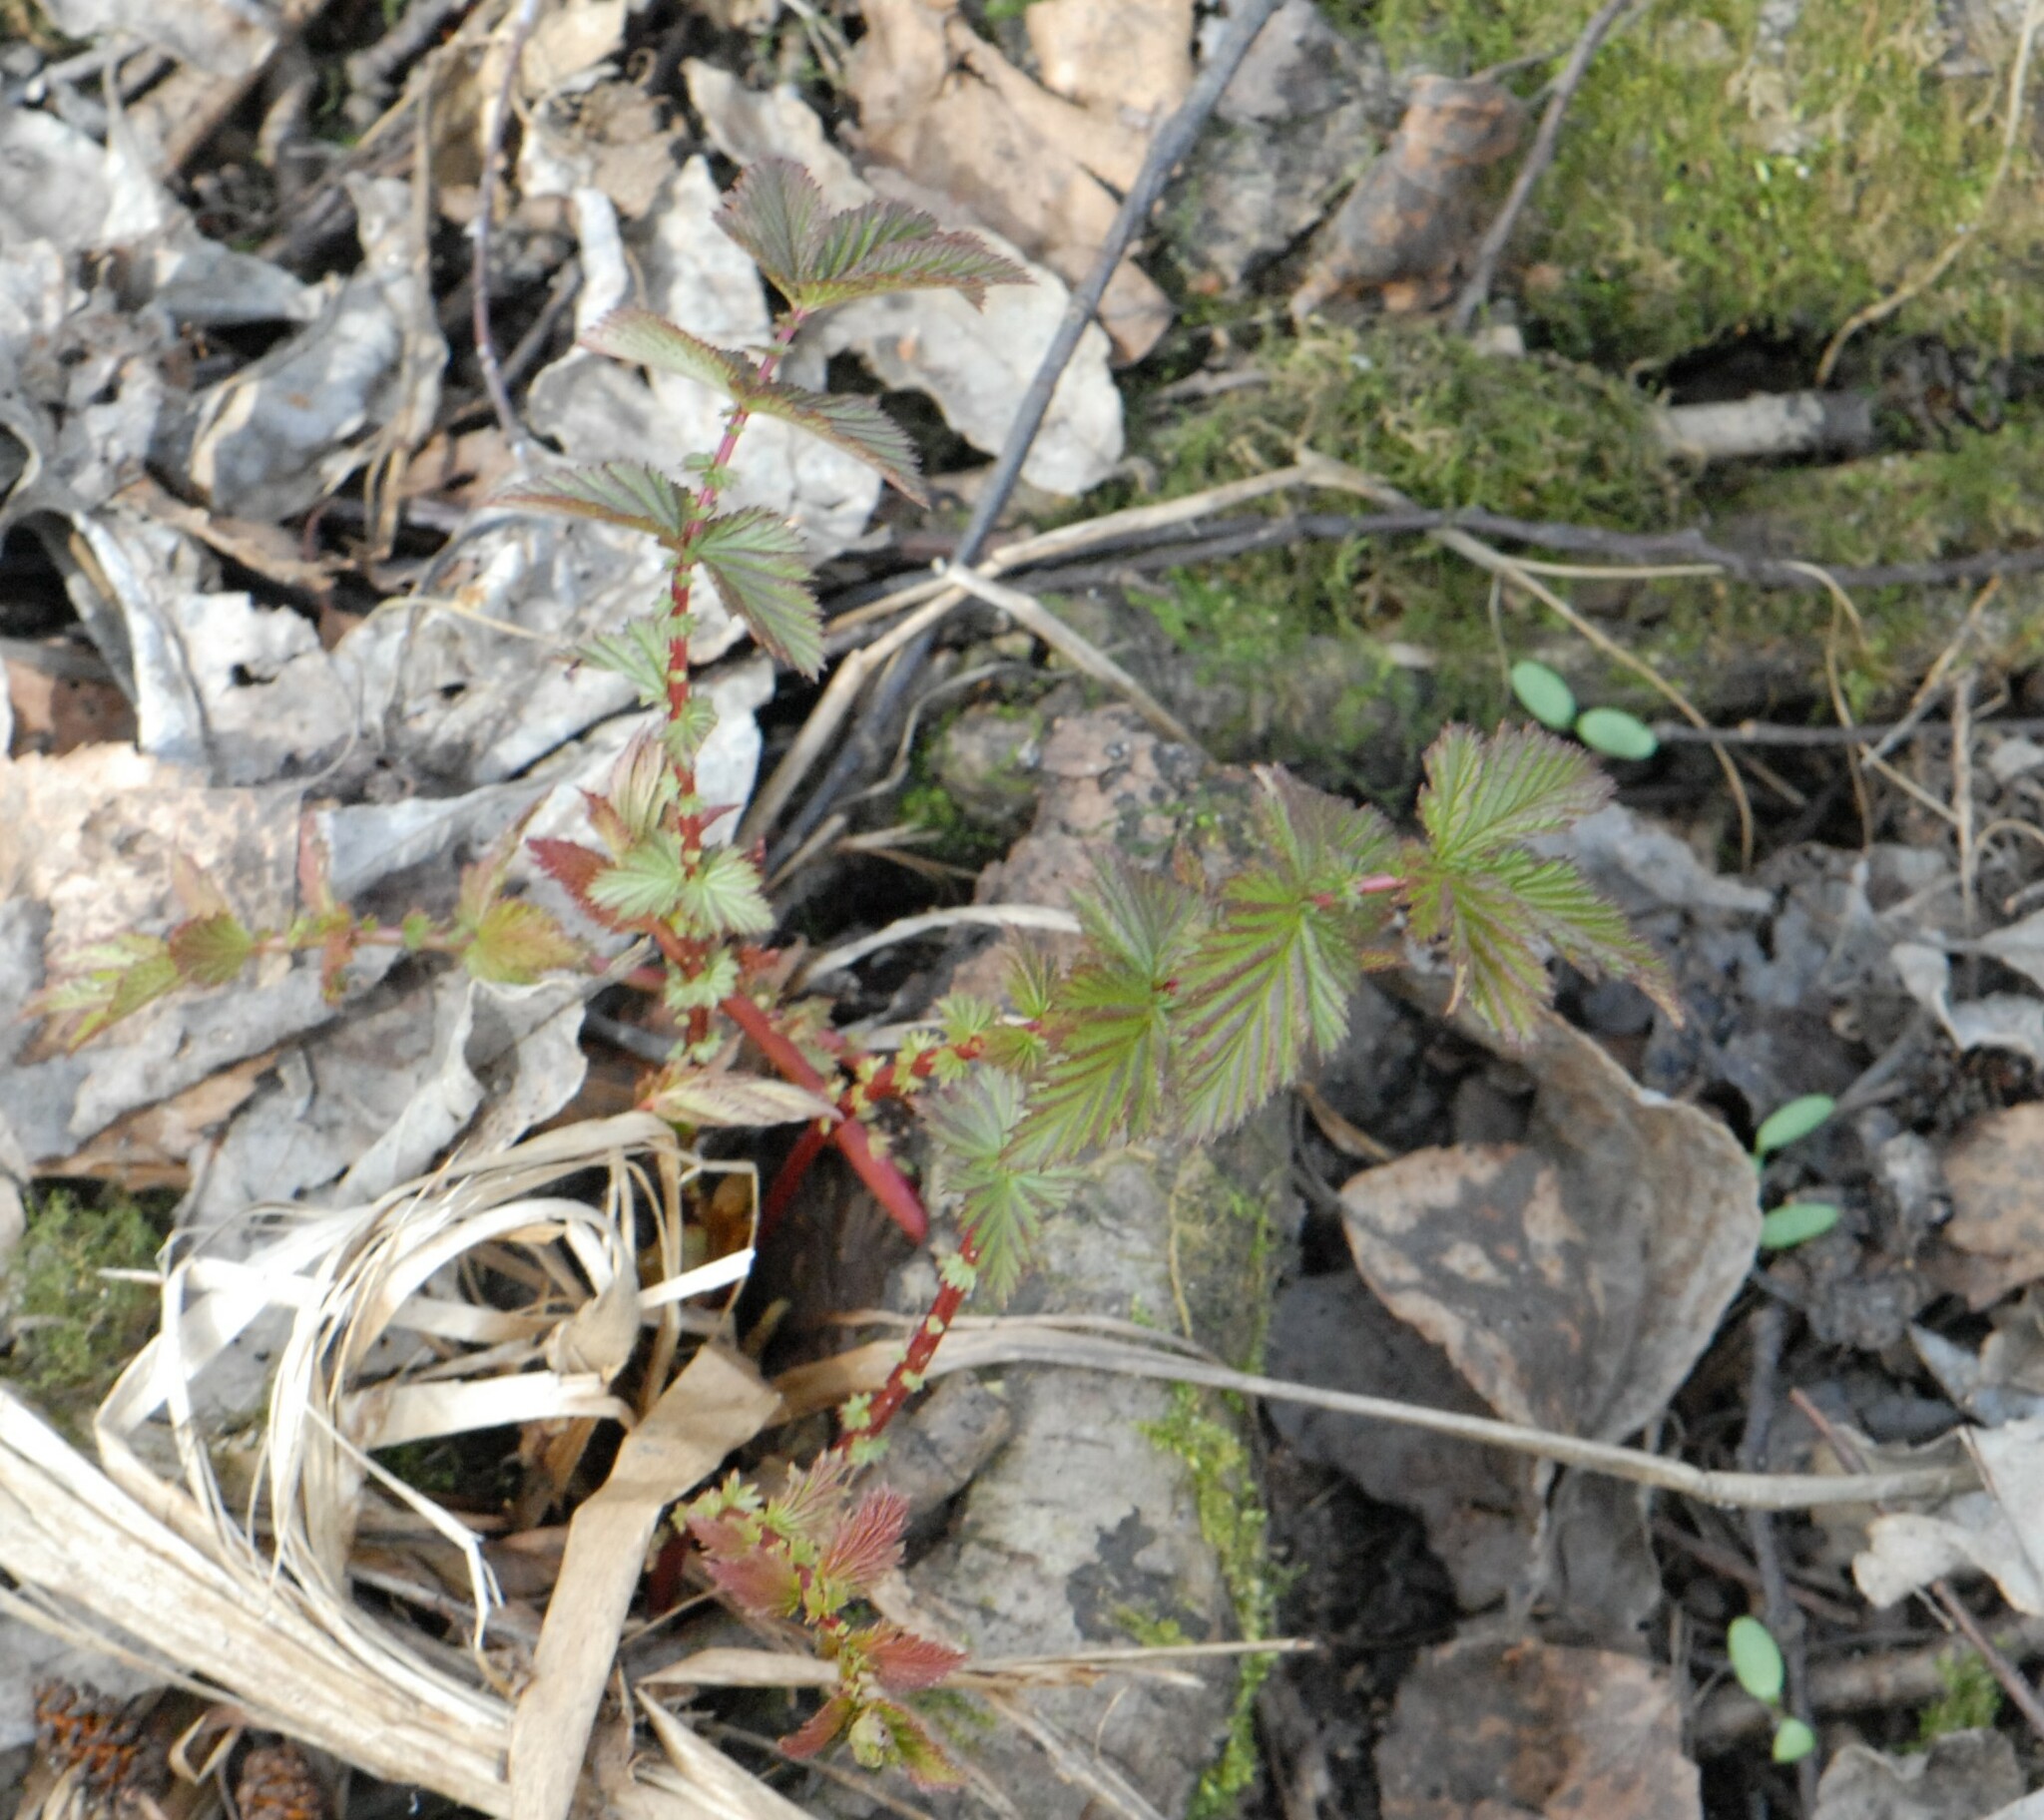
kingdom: Plantae
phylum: Tracheophyta
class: Magnoliopsida
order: Rosales
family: Rosaceae
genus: Filipendula
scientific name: Filipendula ulmaria
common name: Meadowsweet
